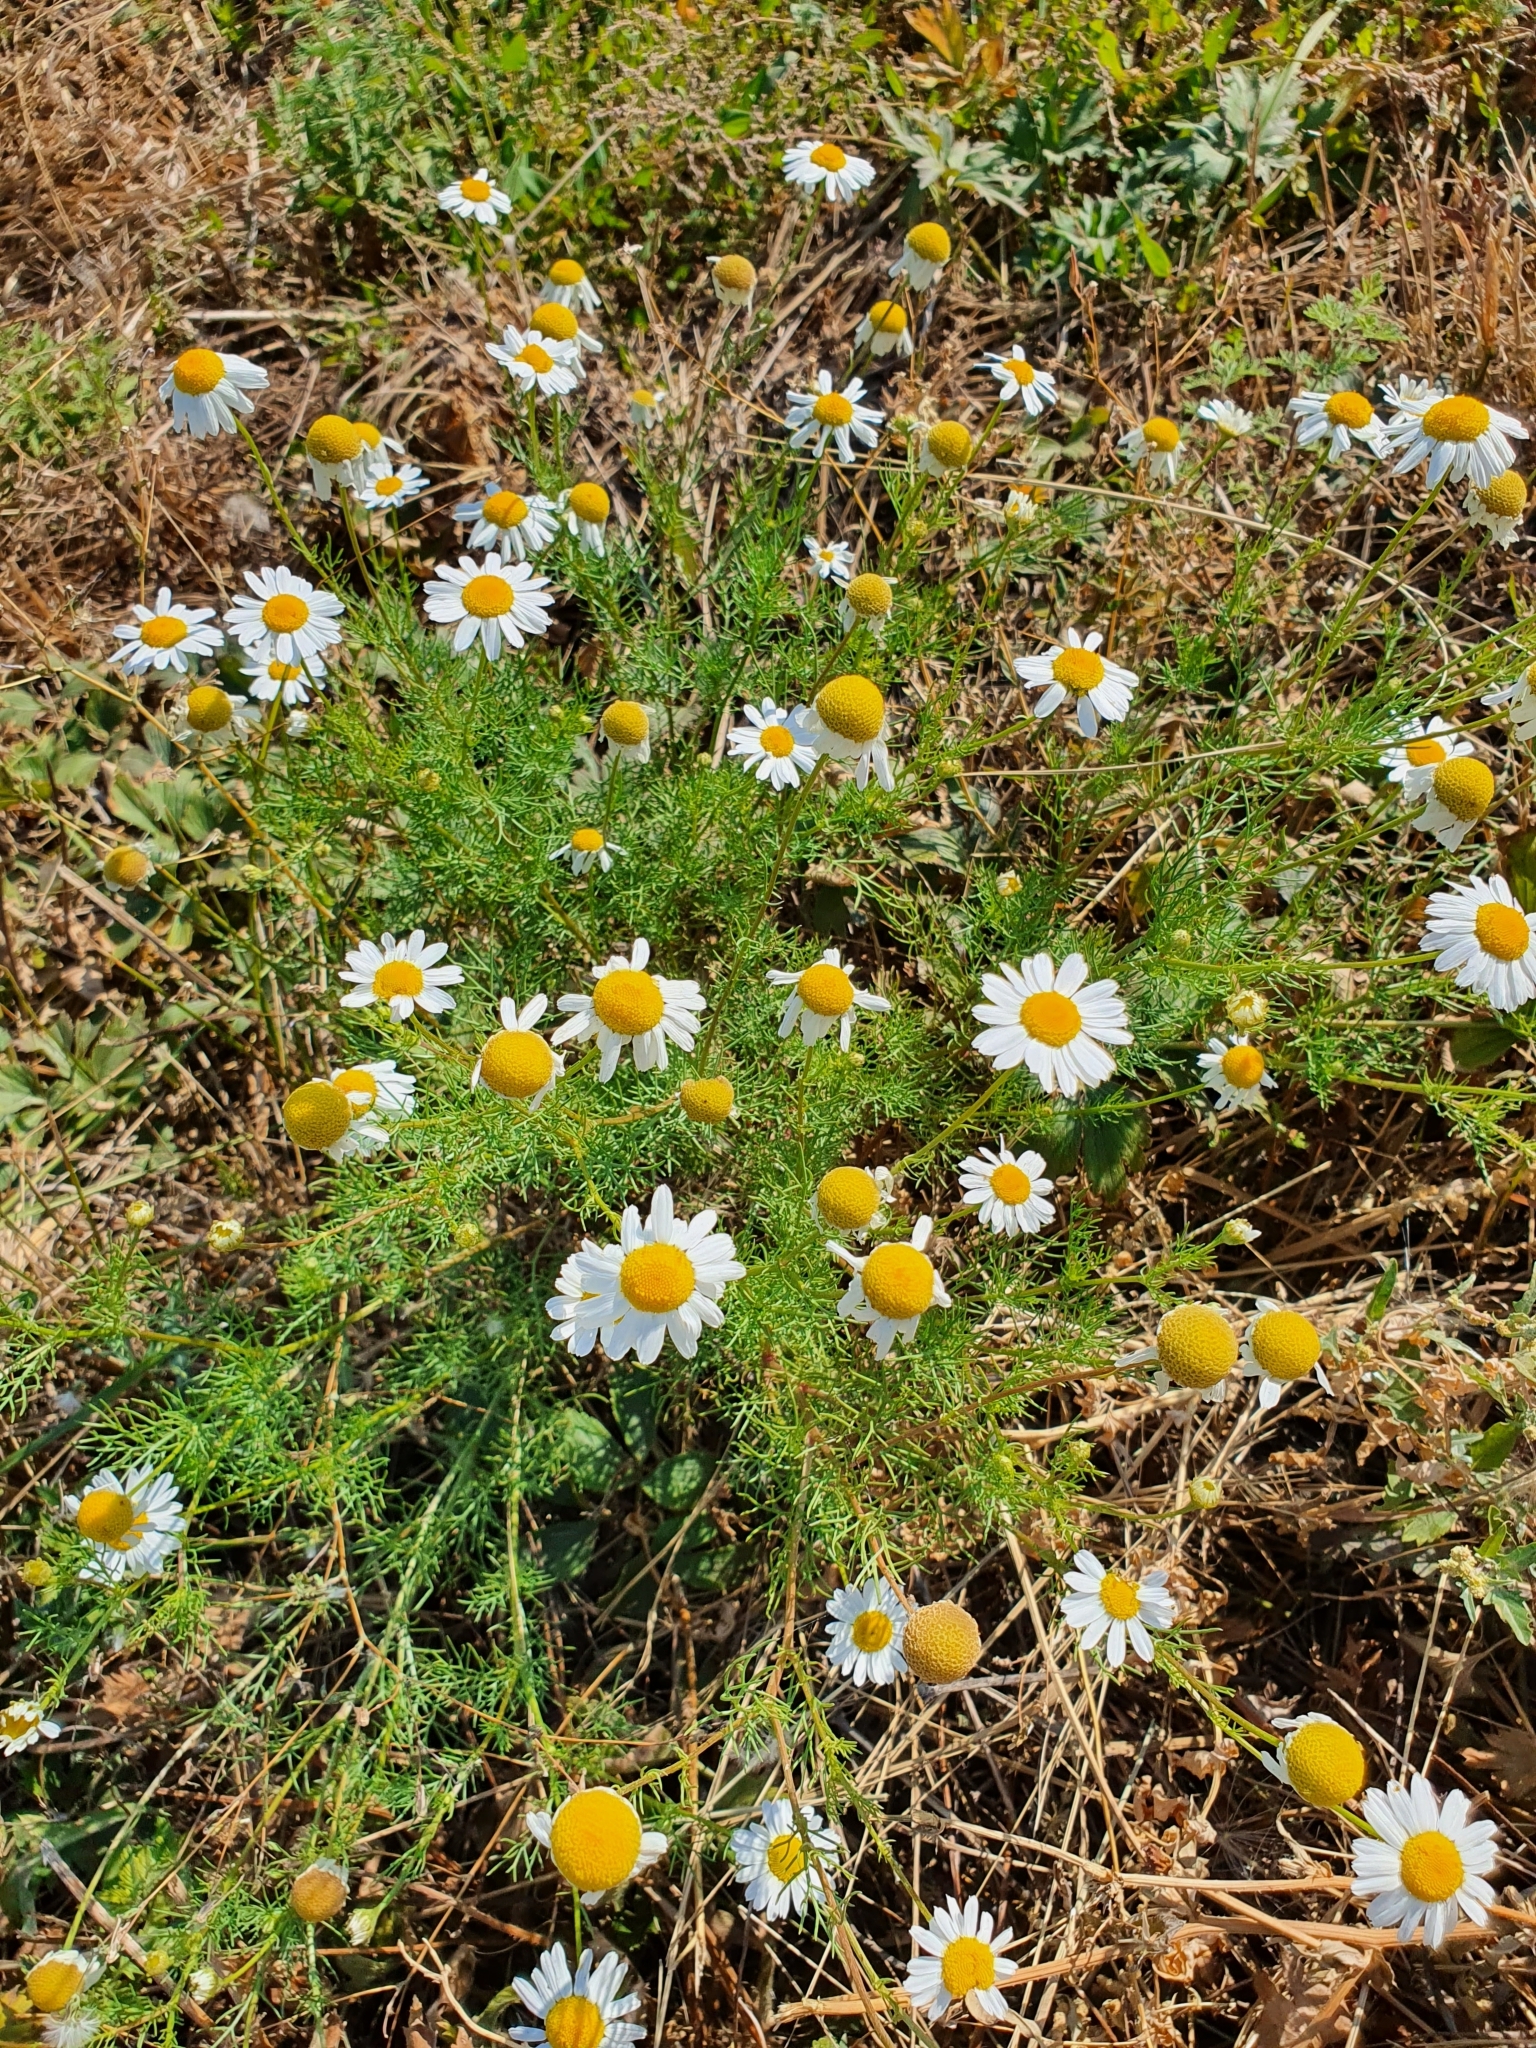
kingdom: Plantae
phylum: Tracheophyta
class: Magnoliopsida
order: Asterales
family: Asteraceae
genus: Tripleurospermum
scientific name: Tripleurospermum inodorum
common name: Scentless mayweed
